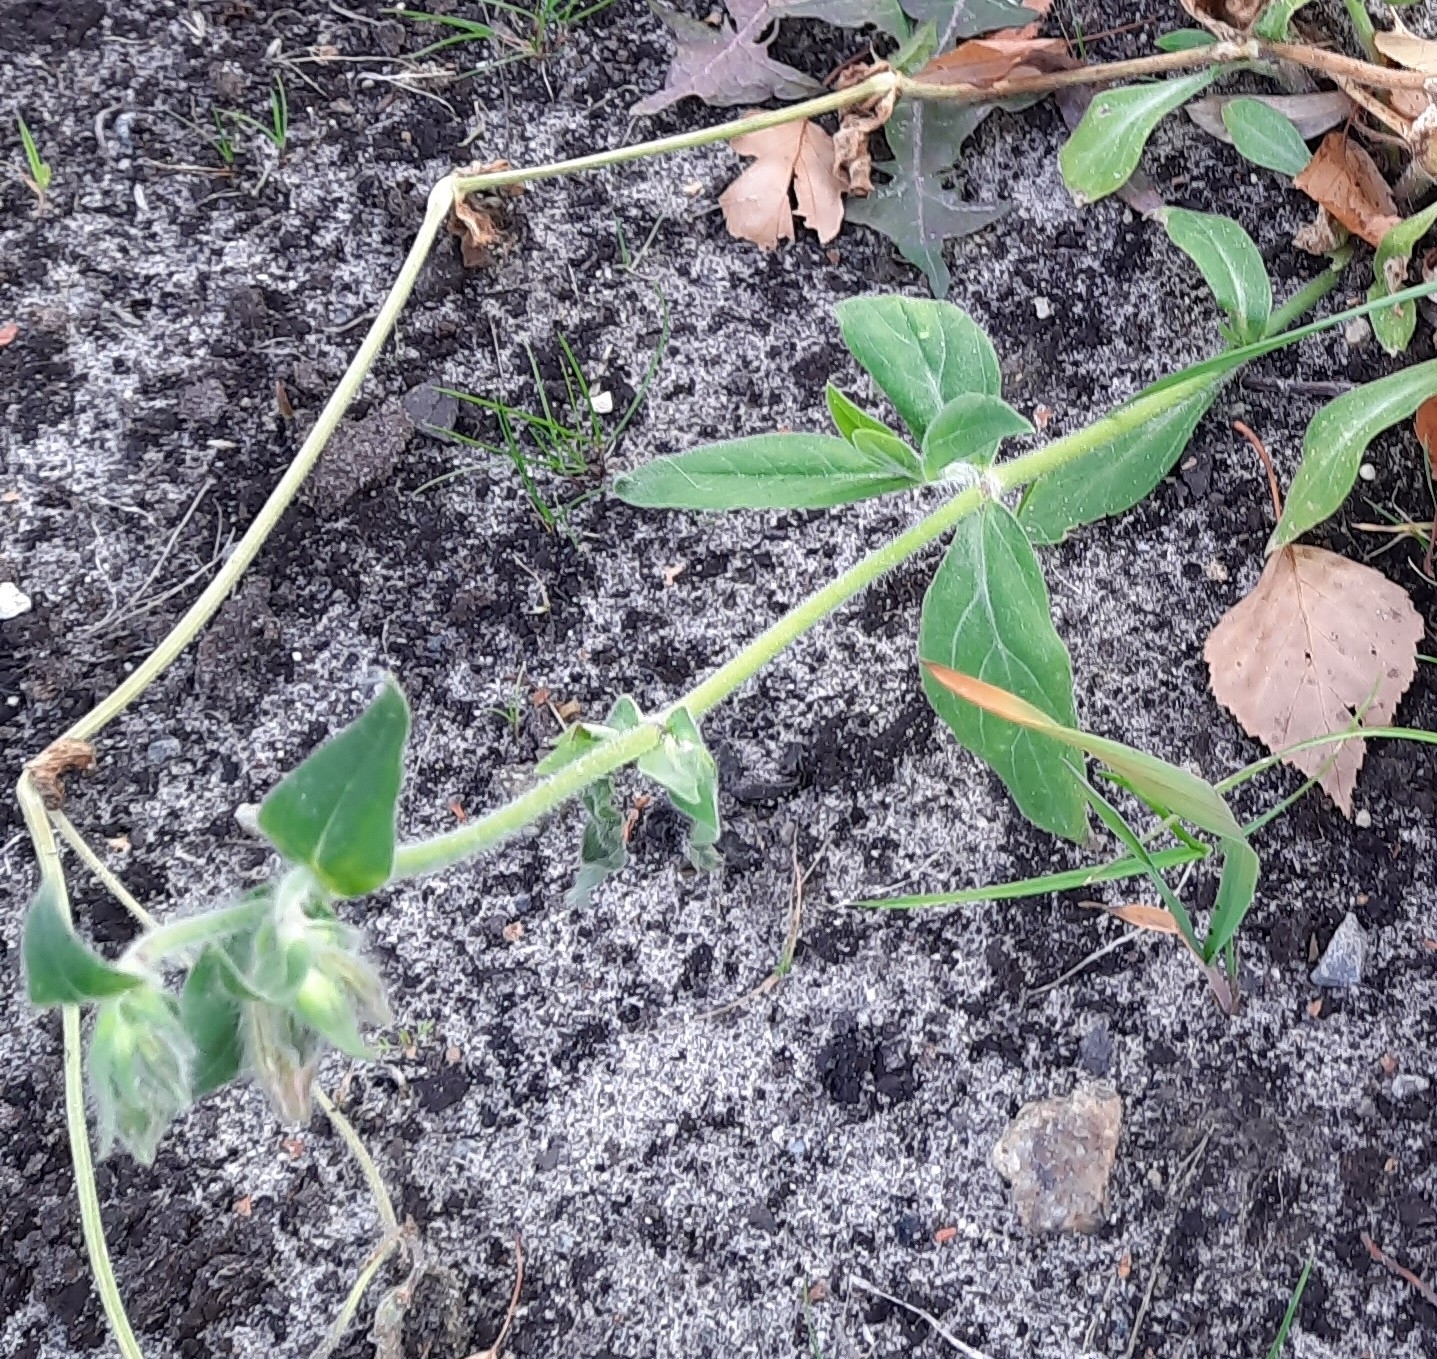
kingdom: Plantae
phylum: Tracheophyta
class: Magnoliopsida
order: Caryophyllales
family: Caryophyllaceae
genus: Silene
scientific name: Silene latifolia
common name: White campion
